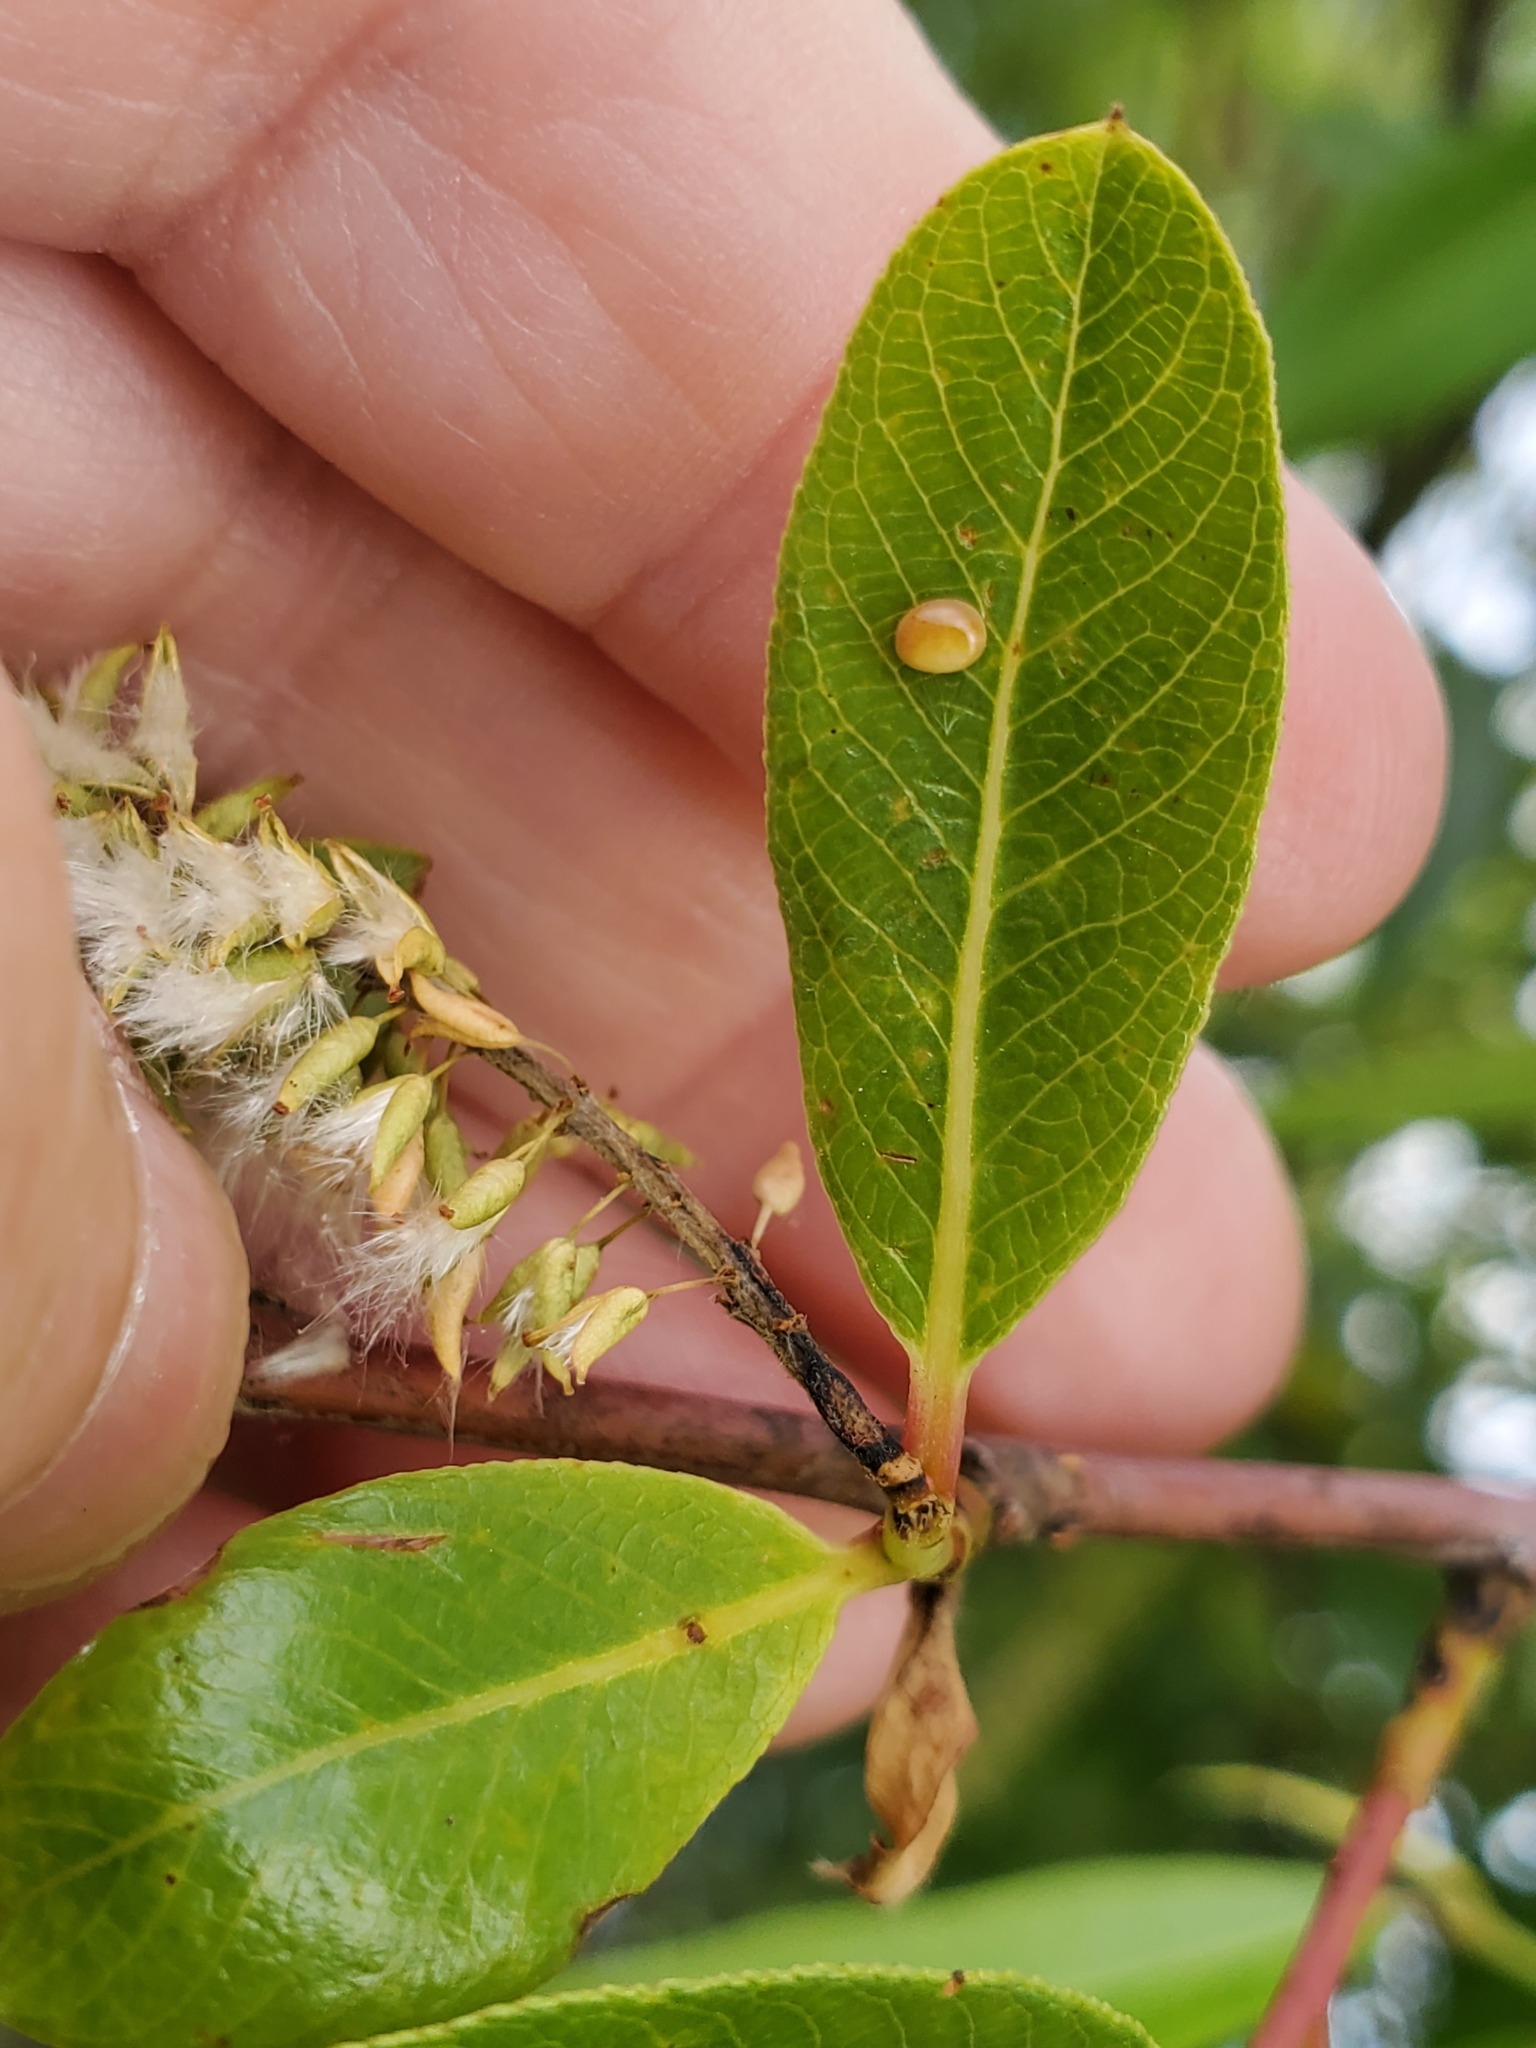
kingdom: Animalia
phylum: Arthropoda
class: Arachnida
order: Trombidiformes
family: Eriophyidae
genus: Aculus
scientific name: Aculus tetanothrix
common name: Willow bead gall mite
